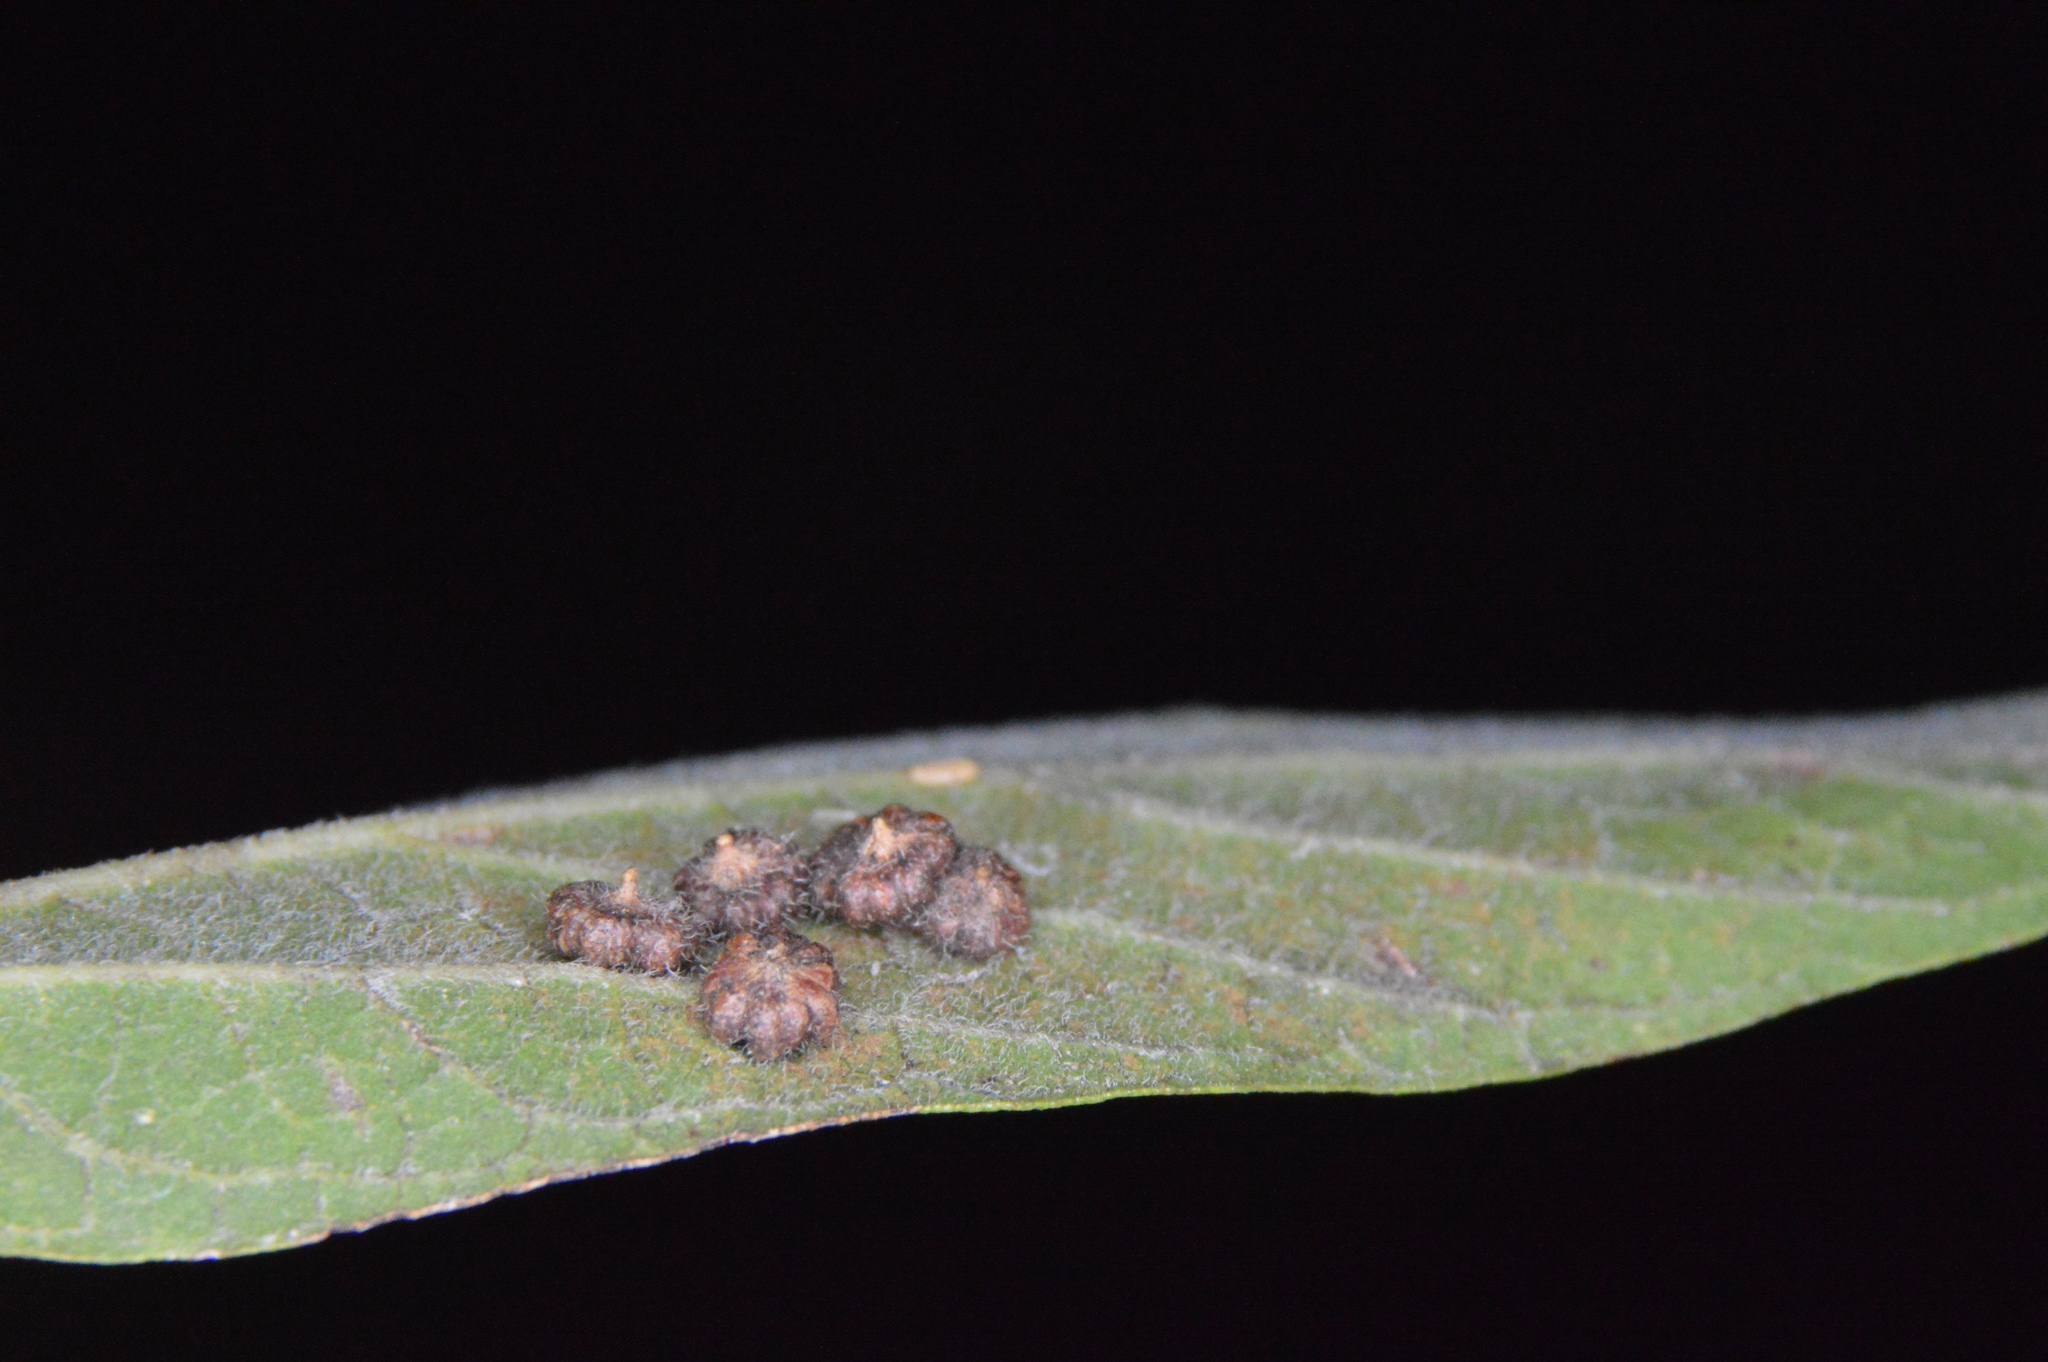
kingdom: Animalia
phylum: Arthropoda
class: Insecta
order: Diptera
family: Cecidomyiidae
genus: Celticecis
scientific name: Celticecis capsularis
